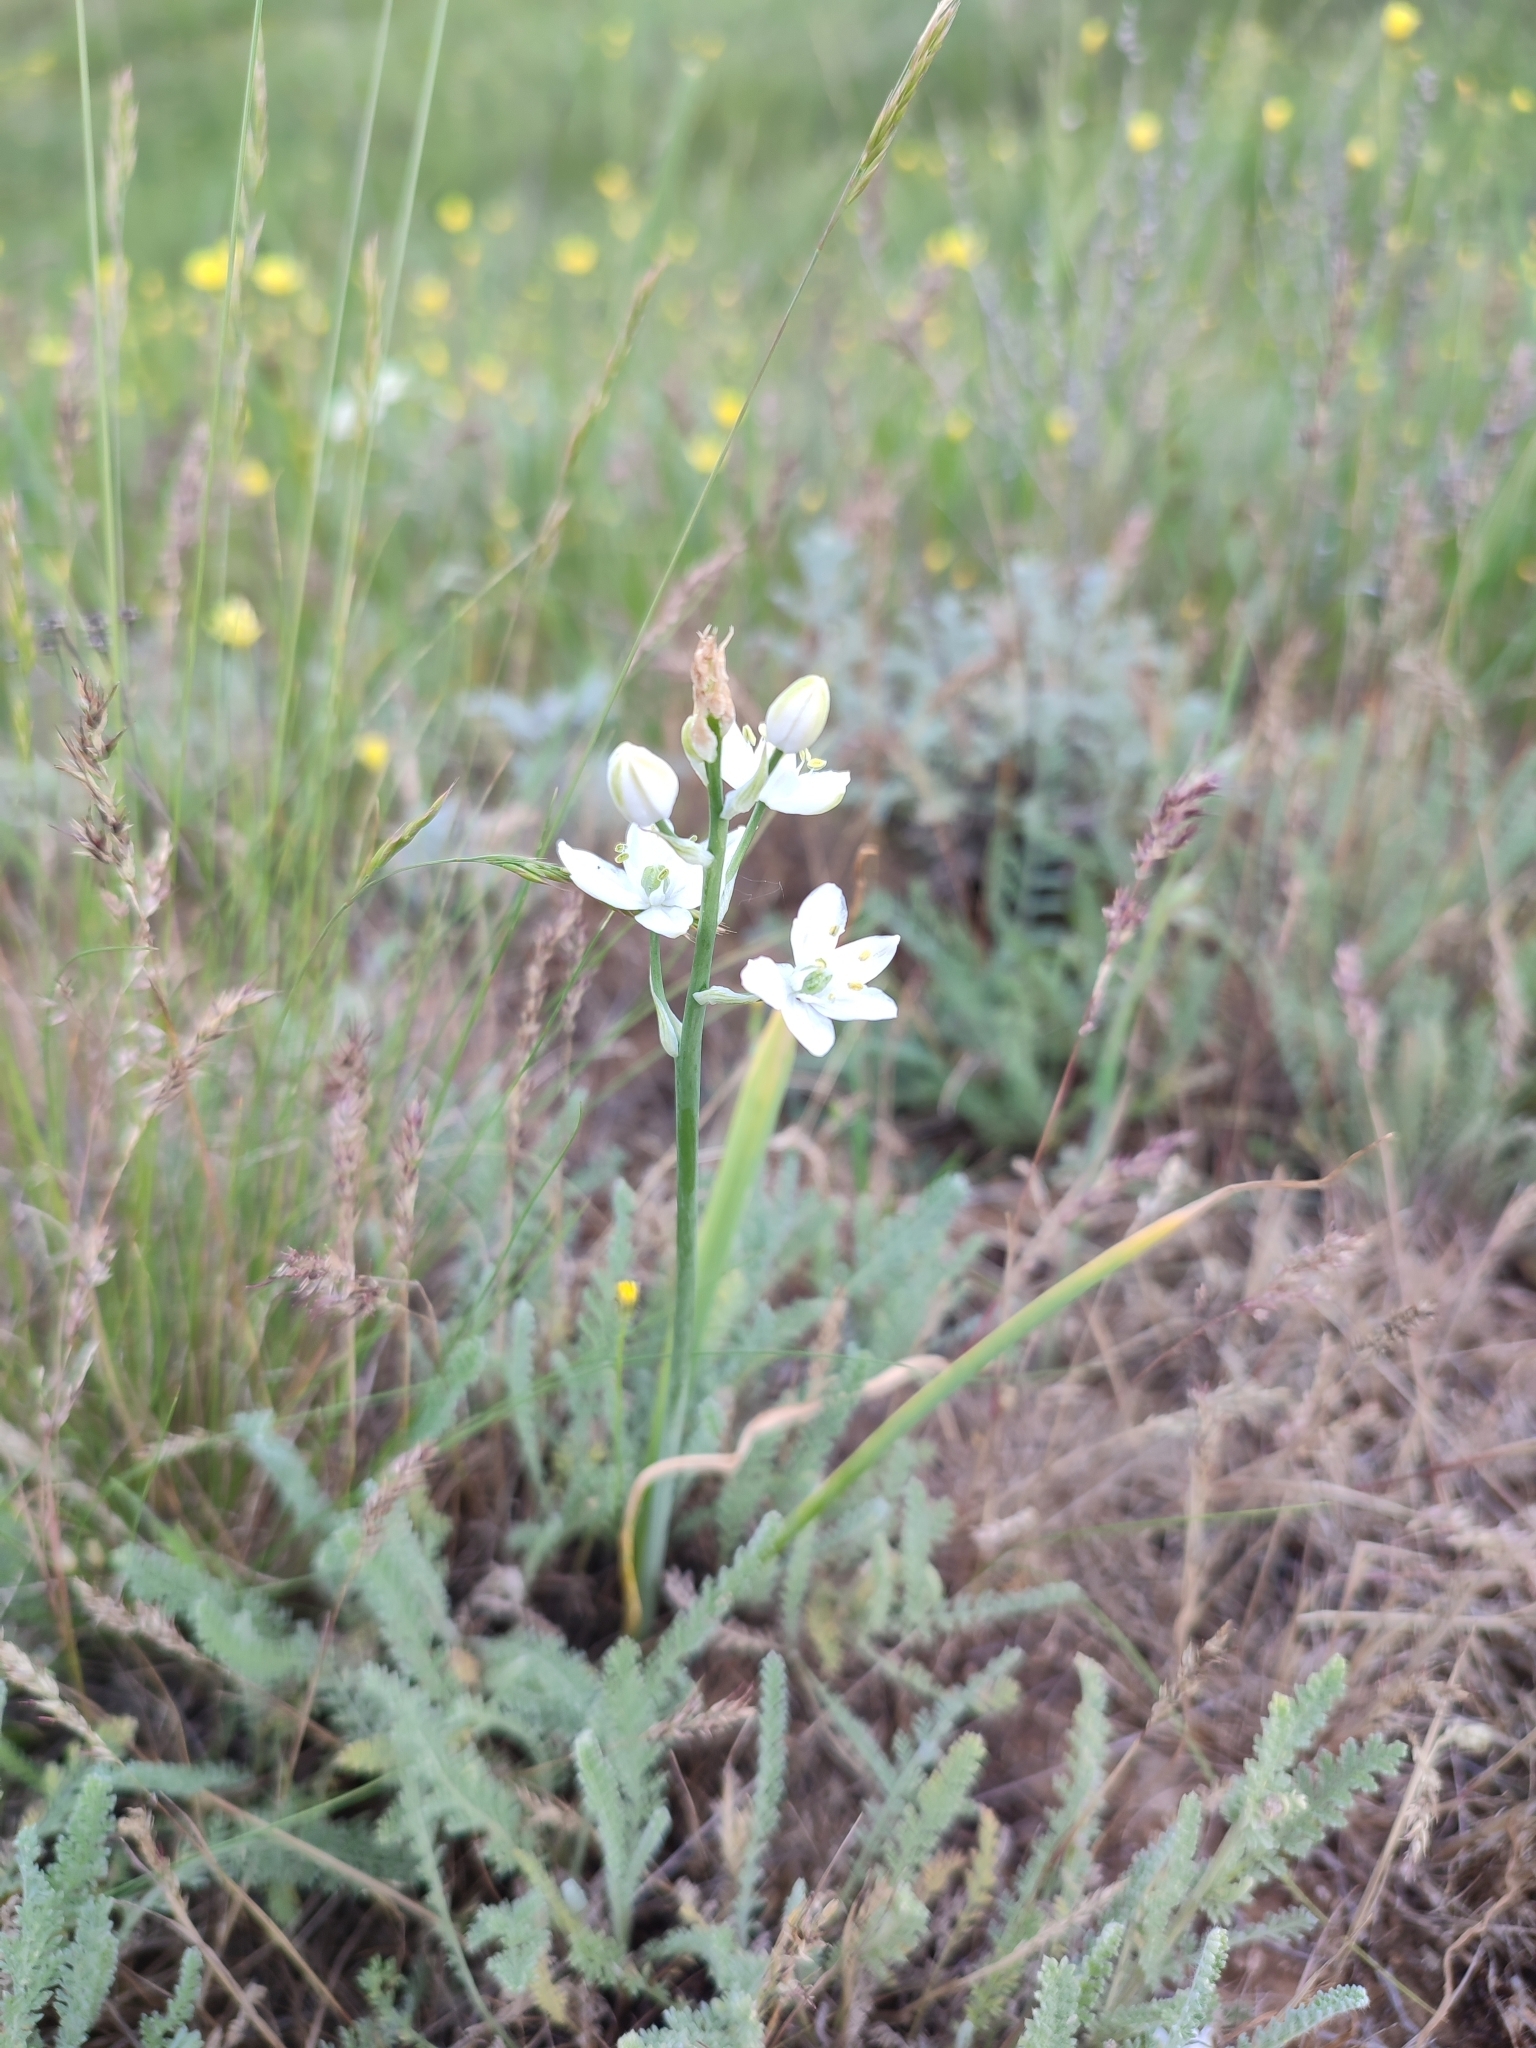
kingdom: Plantae
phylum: Tracheophyta
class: Liliopsida
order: Asparagales
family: Asparagaceae
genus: Ornithogalum
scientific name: Ornithogalum fischerianum
